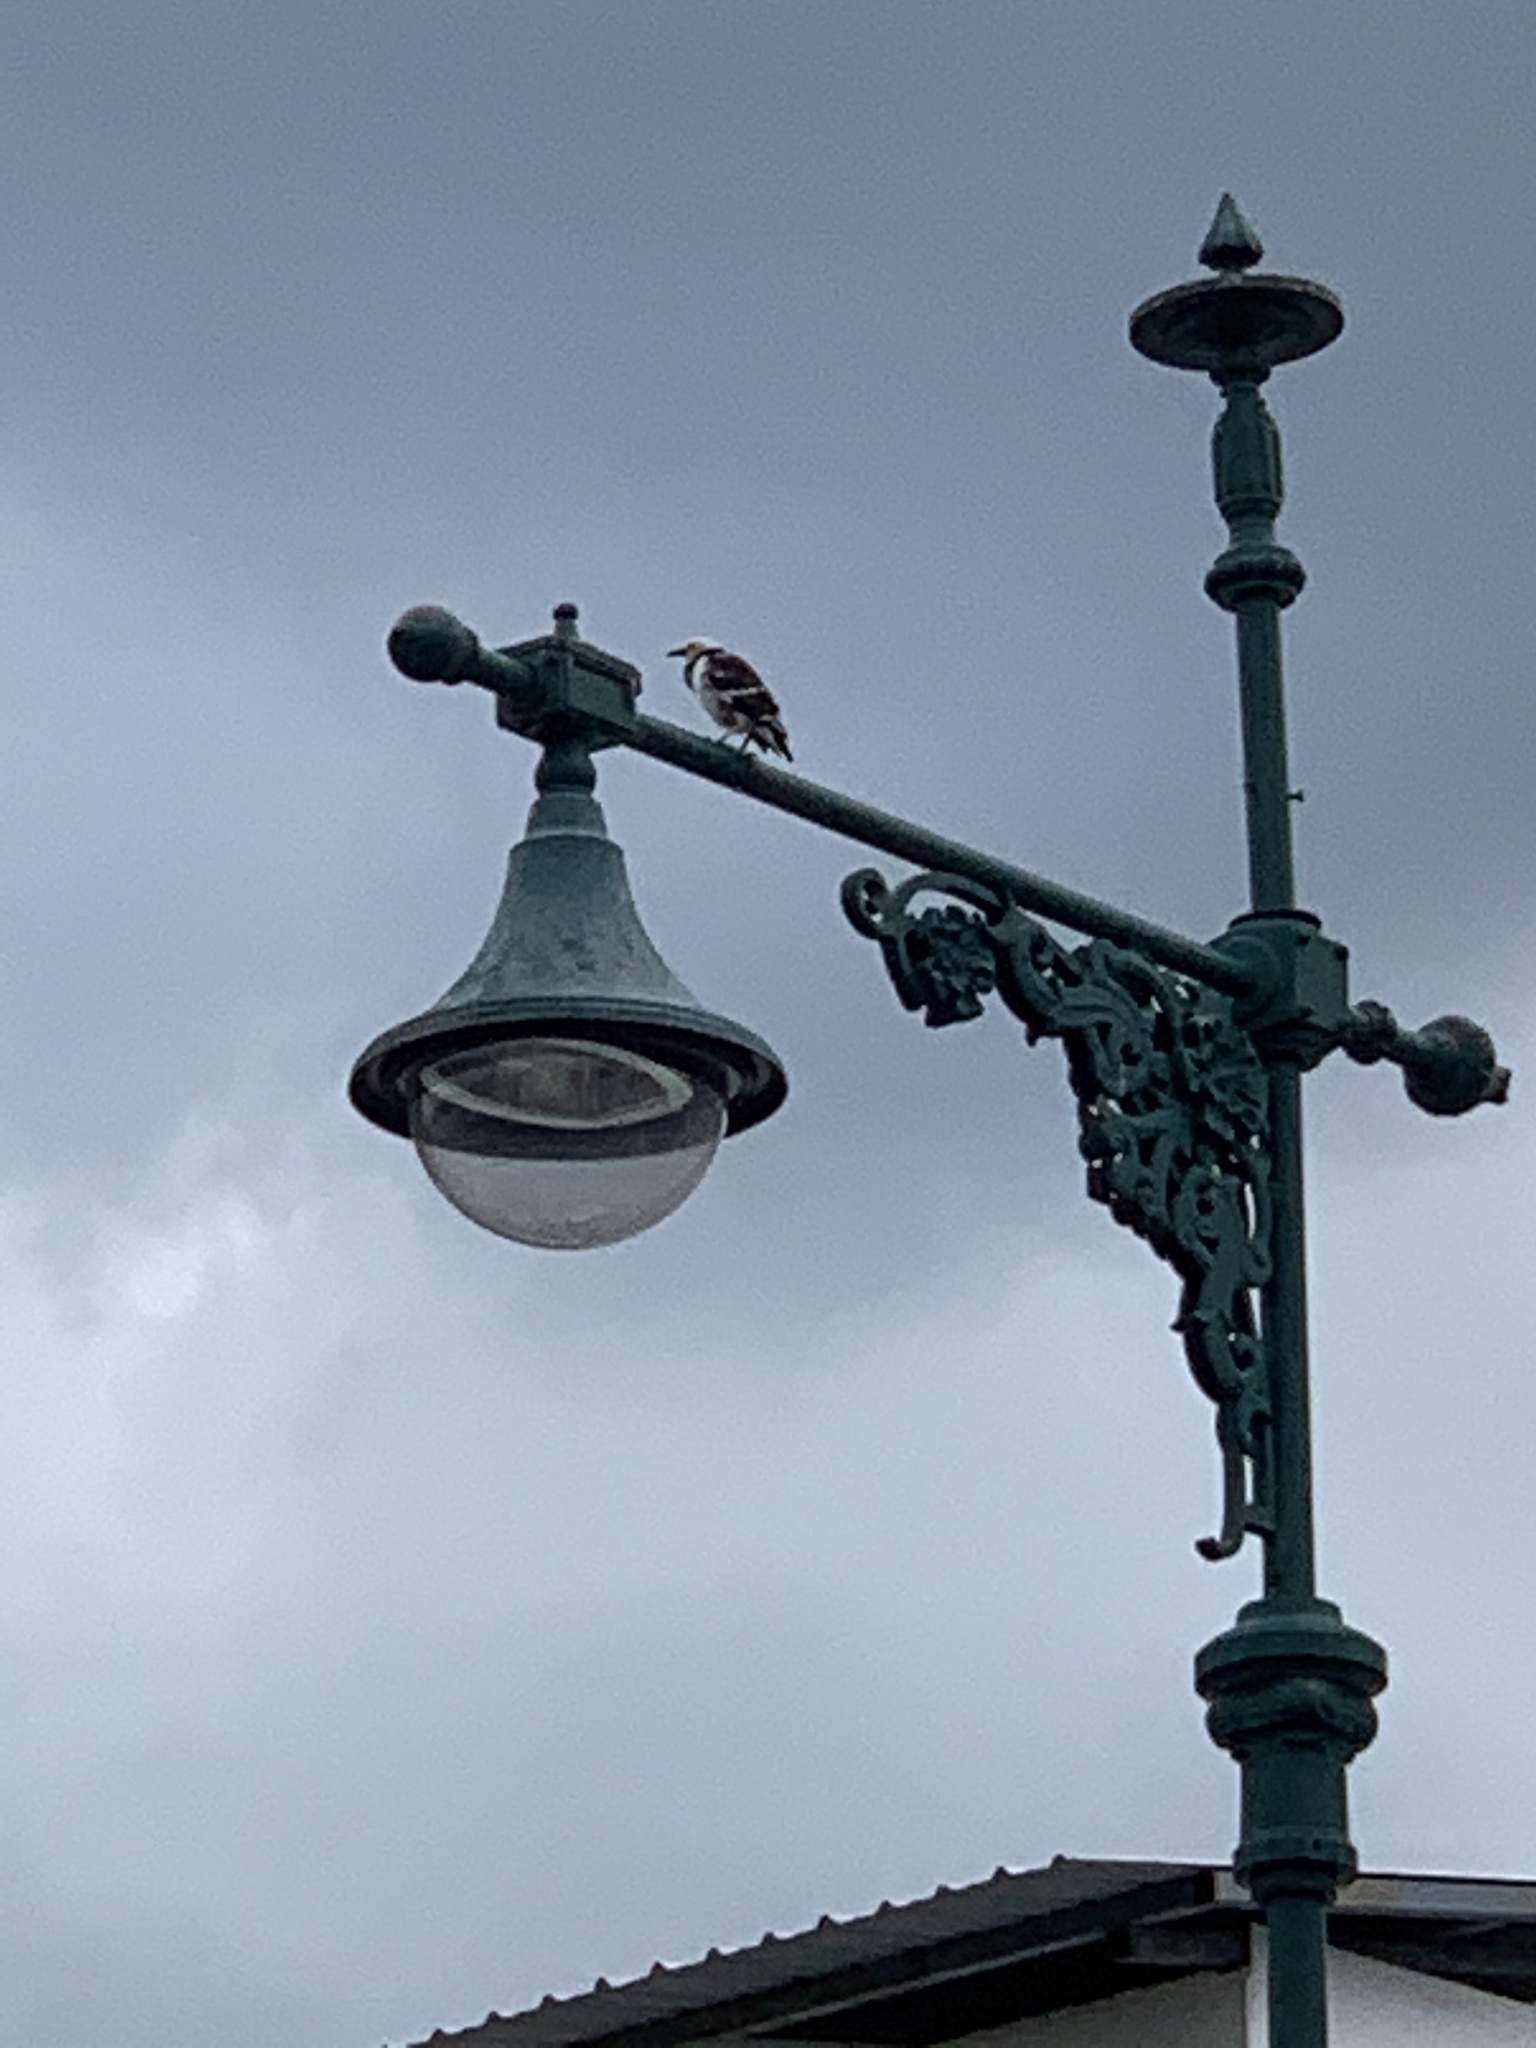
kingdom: Animalia
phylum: Chordata
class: Aves
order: Passeriformes
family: Sturnidae
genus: Gracupica
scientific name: Gracupica nigricollis
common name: Black-collared starling
